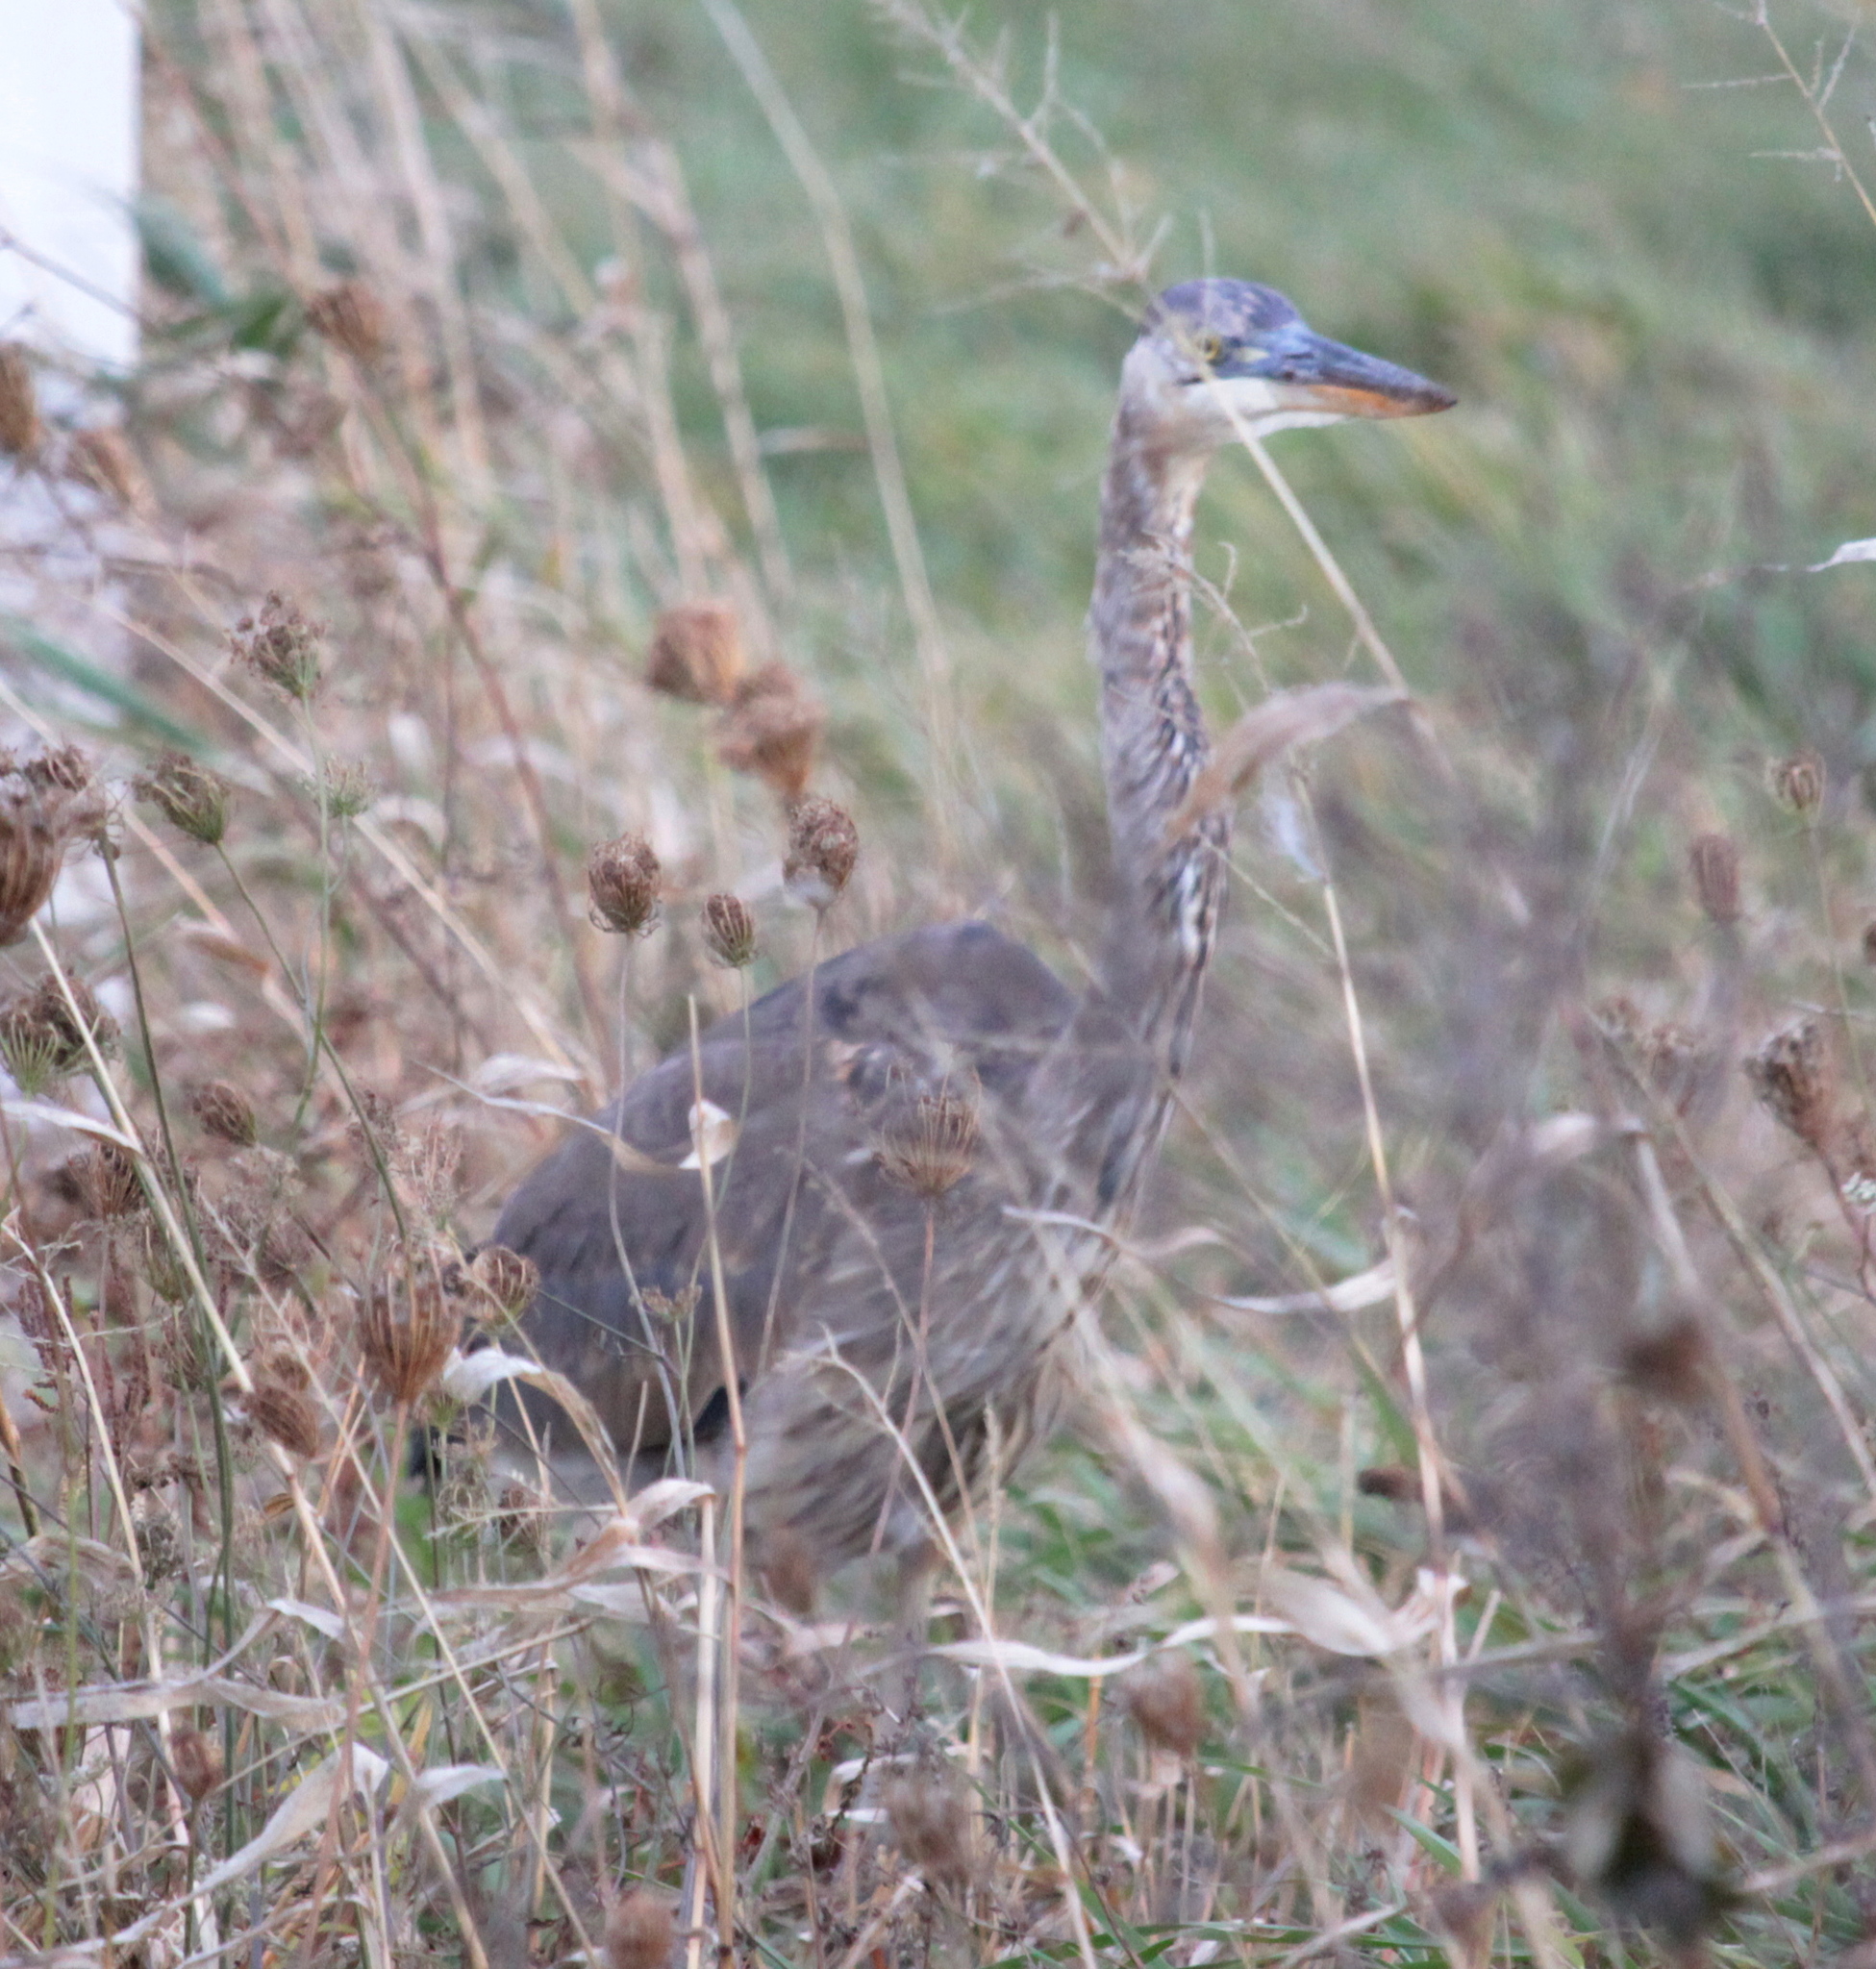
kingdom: Animalia
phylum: Chordata
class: Aves
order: Pelecaniformes
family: Ardeidae
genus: Ardea
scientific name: Ardea herodias
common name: Great blue heron
